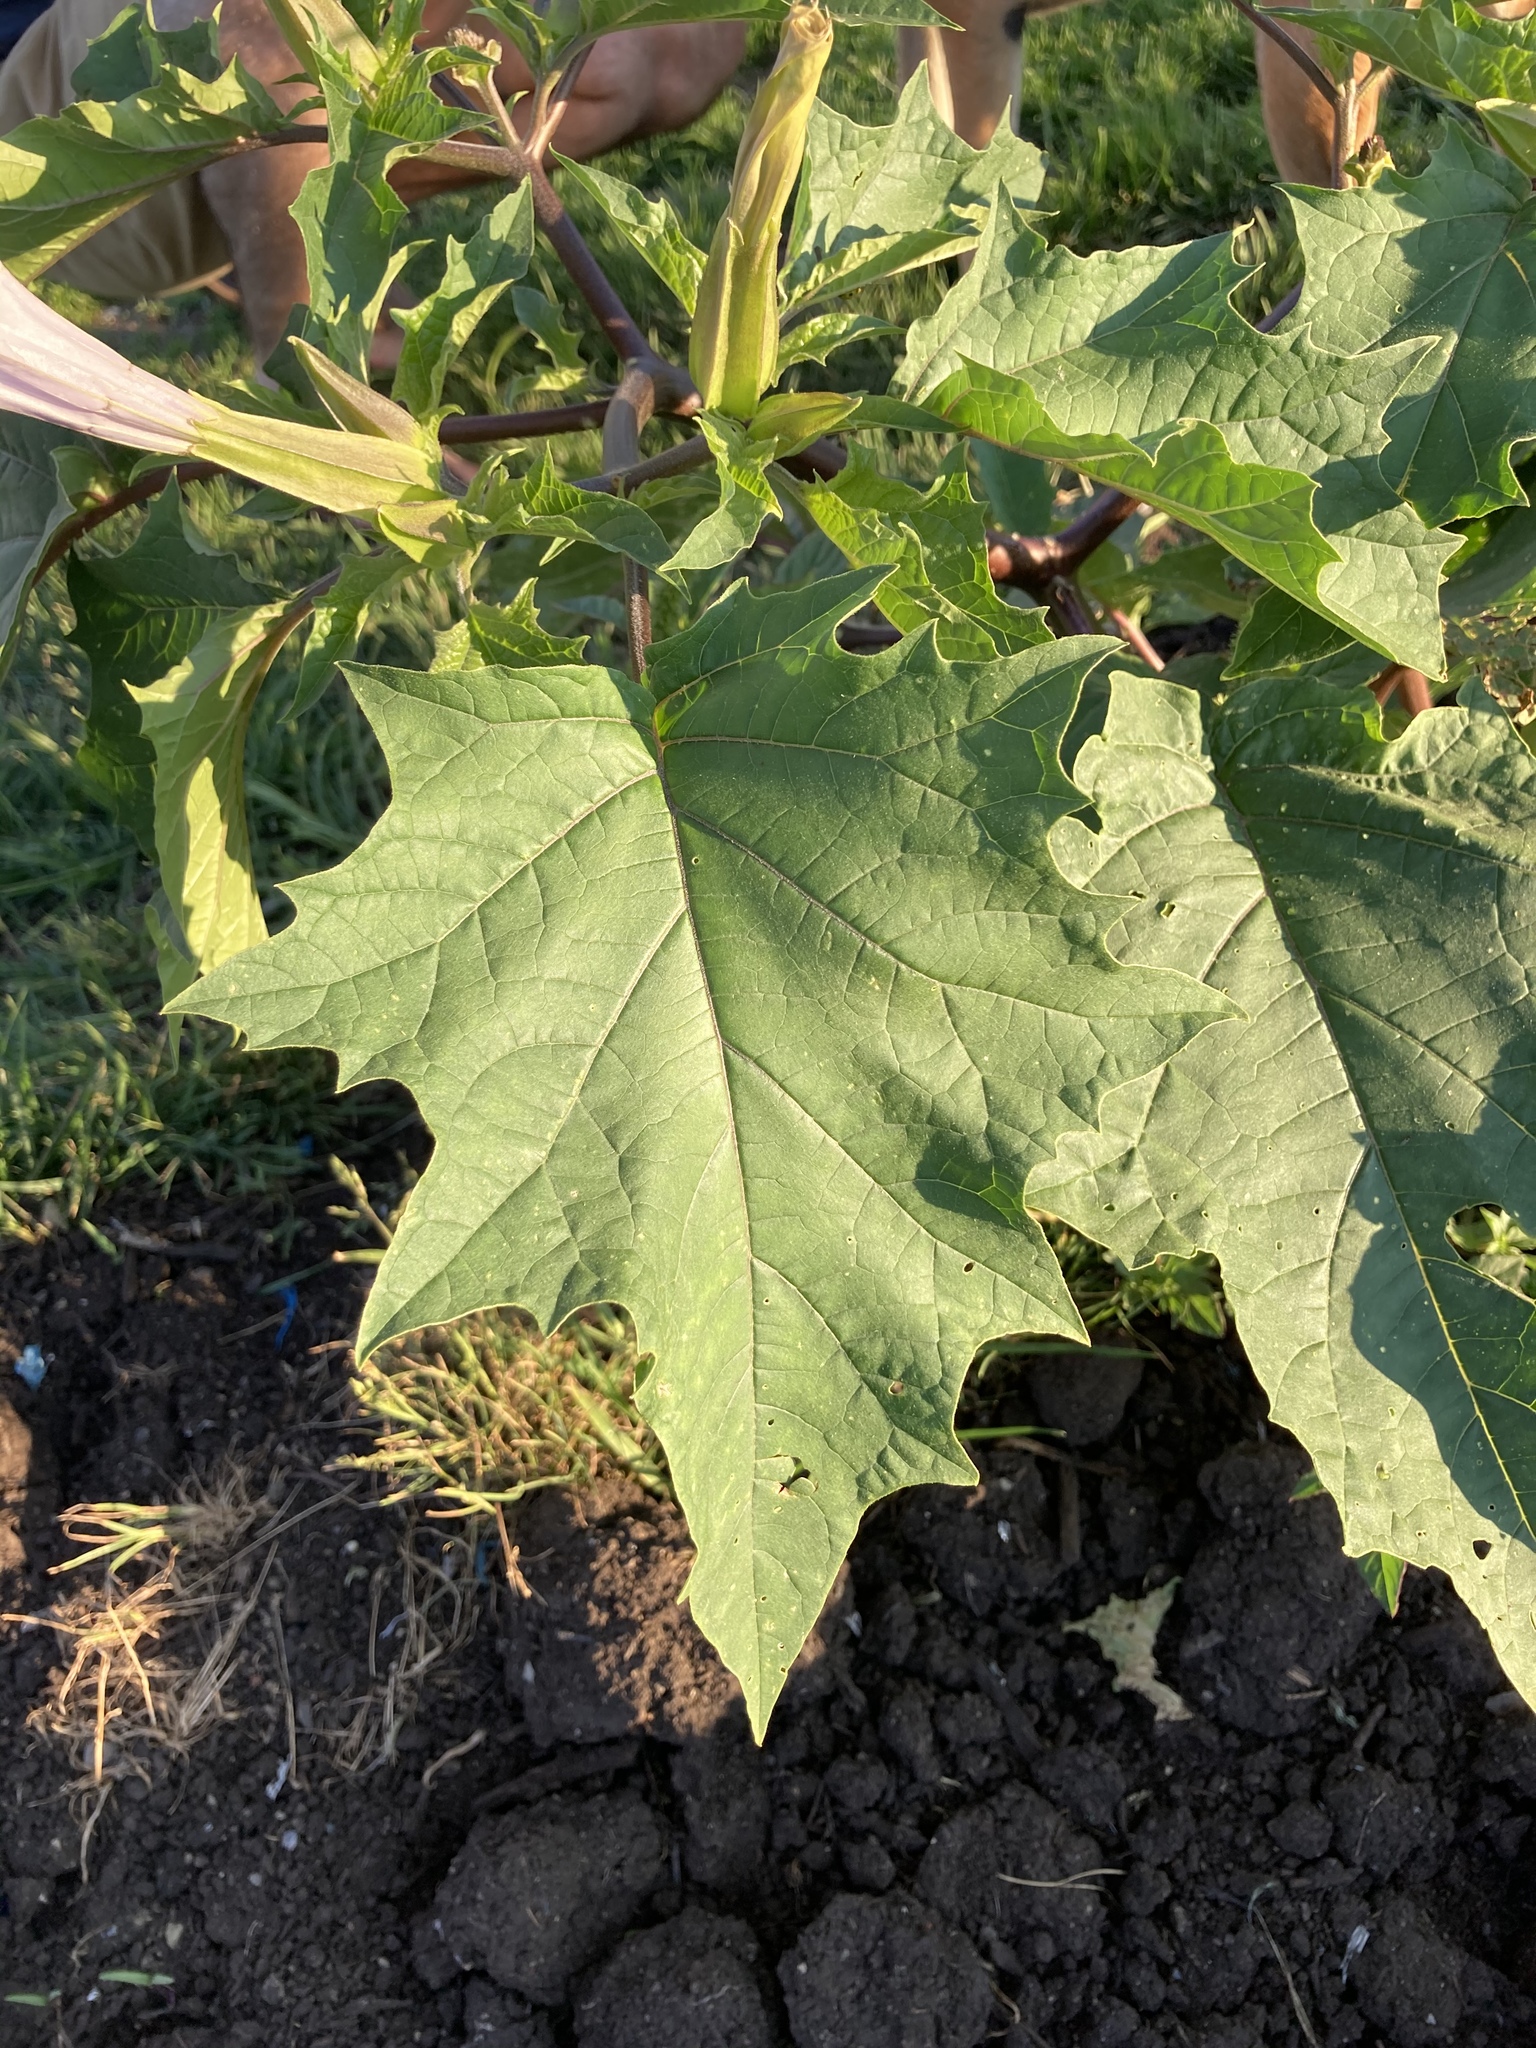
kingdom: Plantae
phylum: Tracheophyta
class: Magnoliopsida
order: Solanales
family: Solanaceae
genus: Datura
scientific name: Datura stramonium
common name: Thorn-apple
